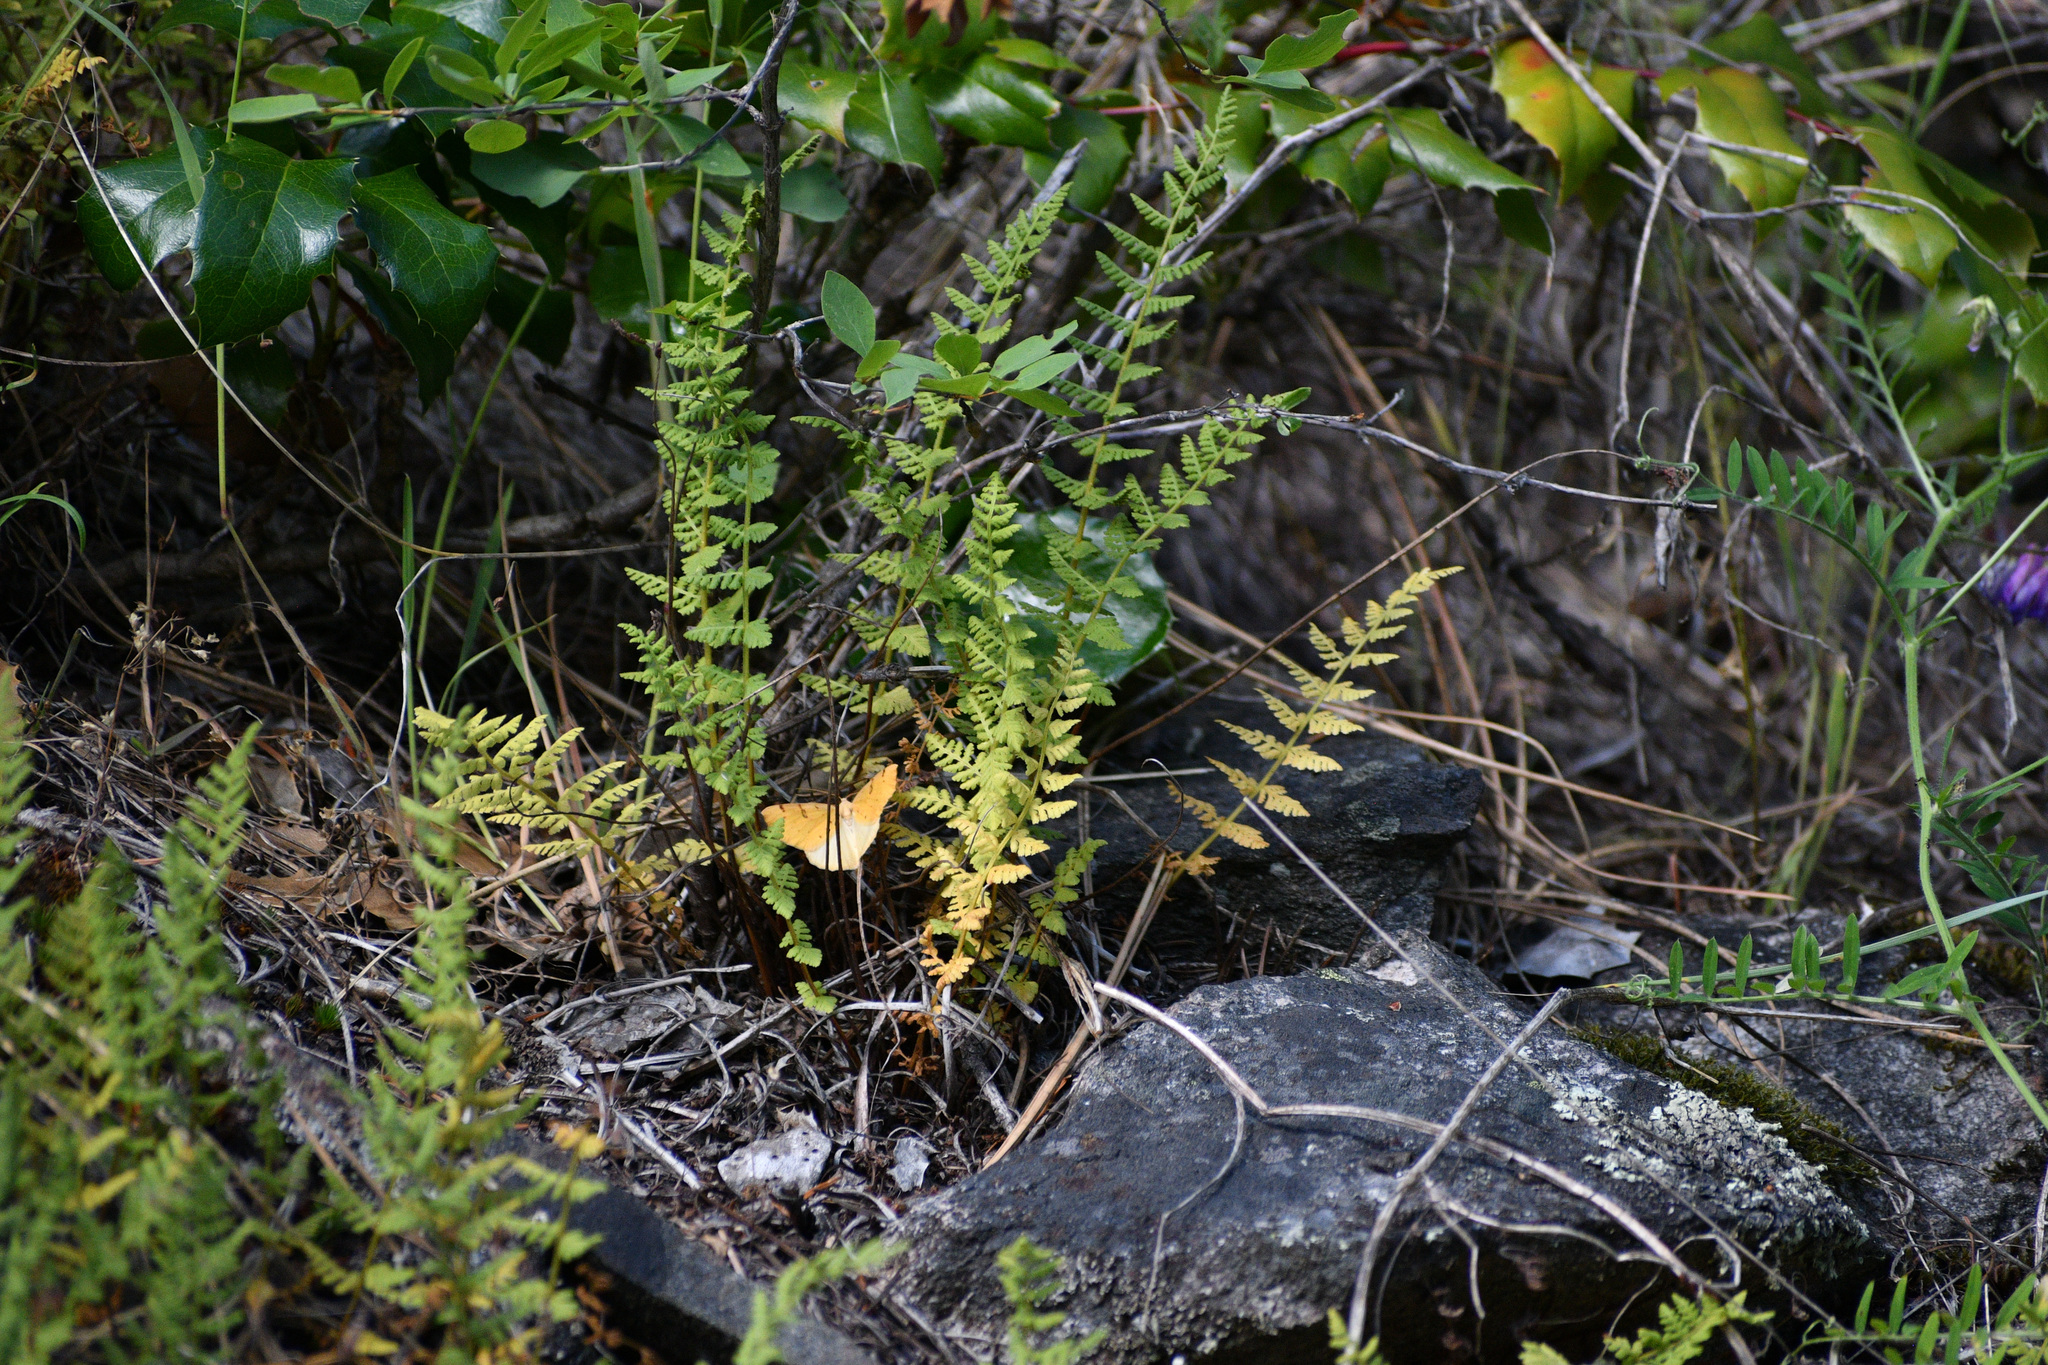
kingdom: Plantae
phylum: Tracheophyta
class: Polypodiopsida
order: Polypodiales
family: Woodsiaceae
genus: Physematium
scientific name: Physematium scopulinum
